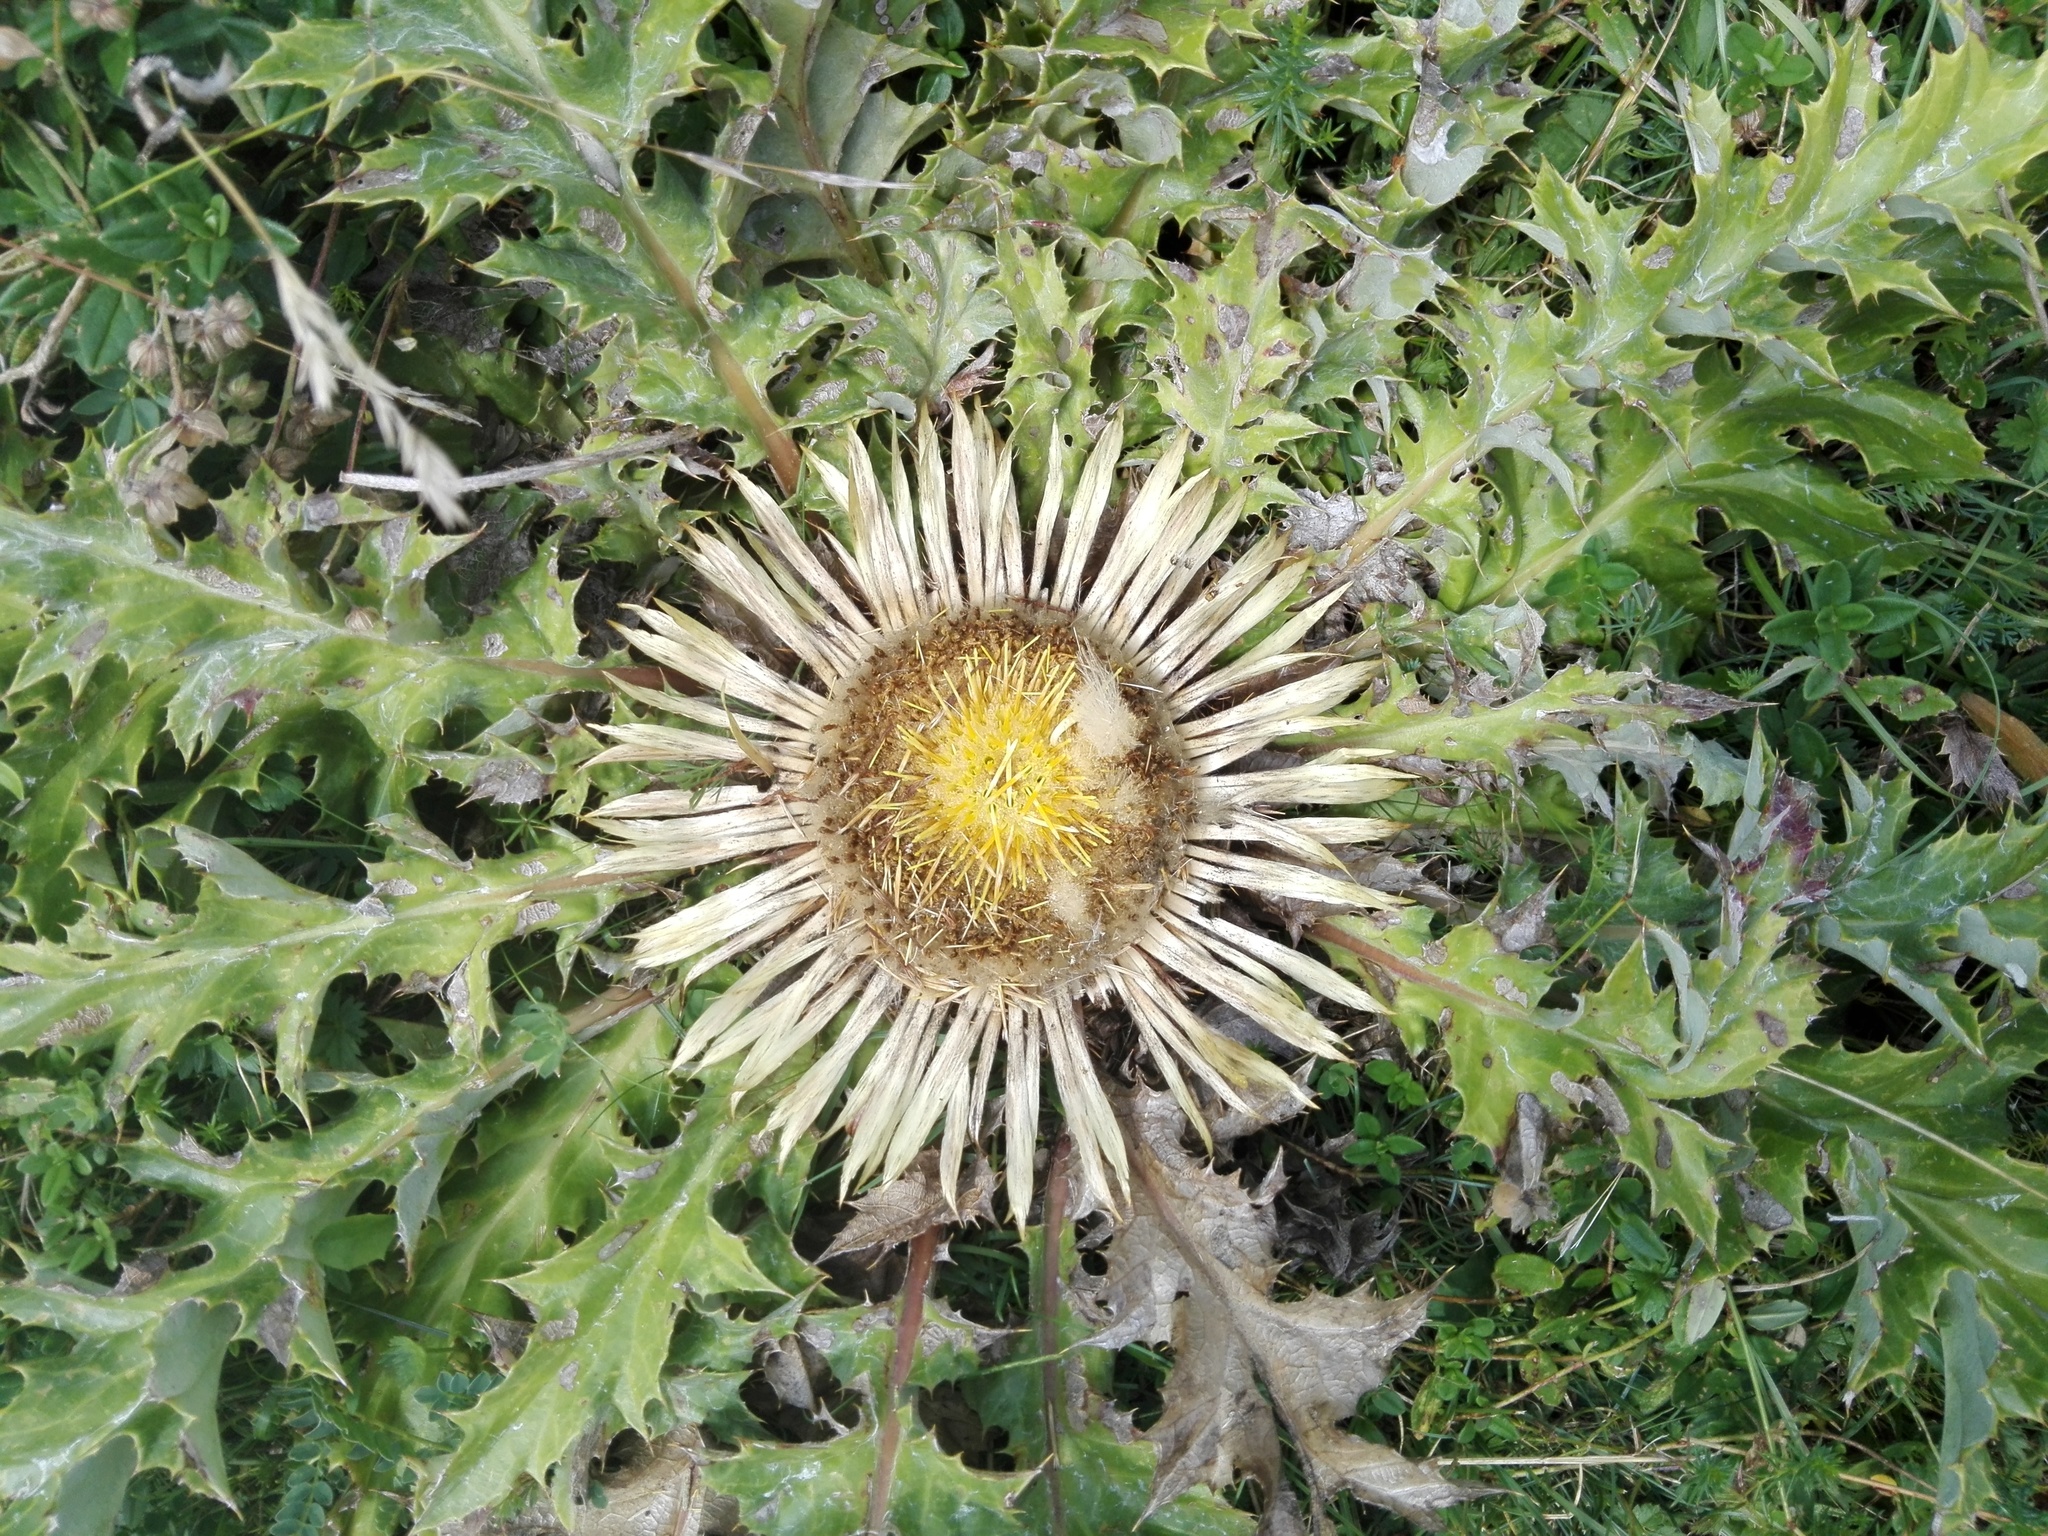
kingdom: Plantae
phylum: Tracheophyta
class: Magnoliopsida
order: Asterales
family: Asteraceae
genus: Carlina
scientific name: Carlina acanthifolia
